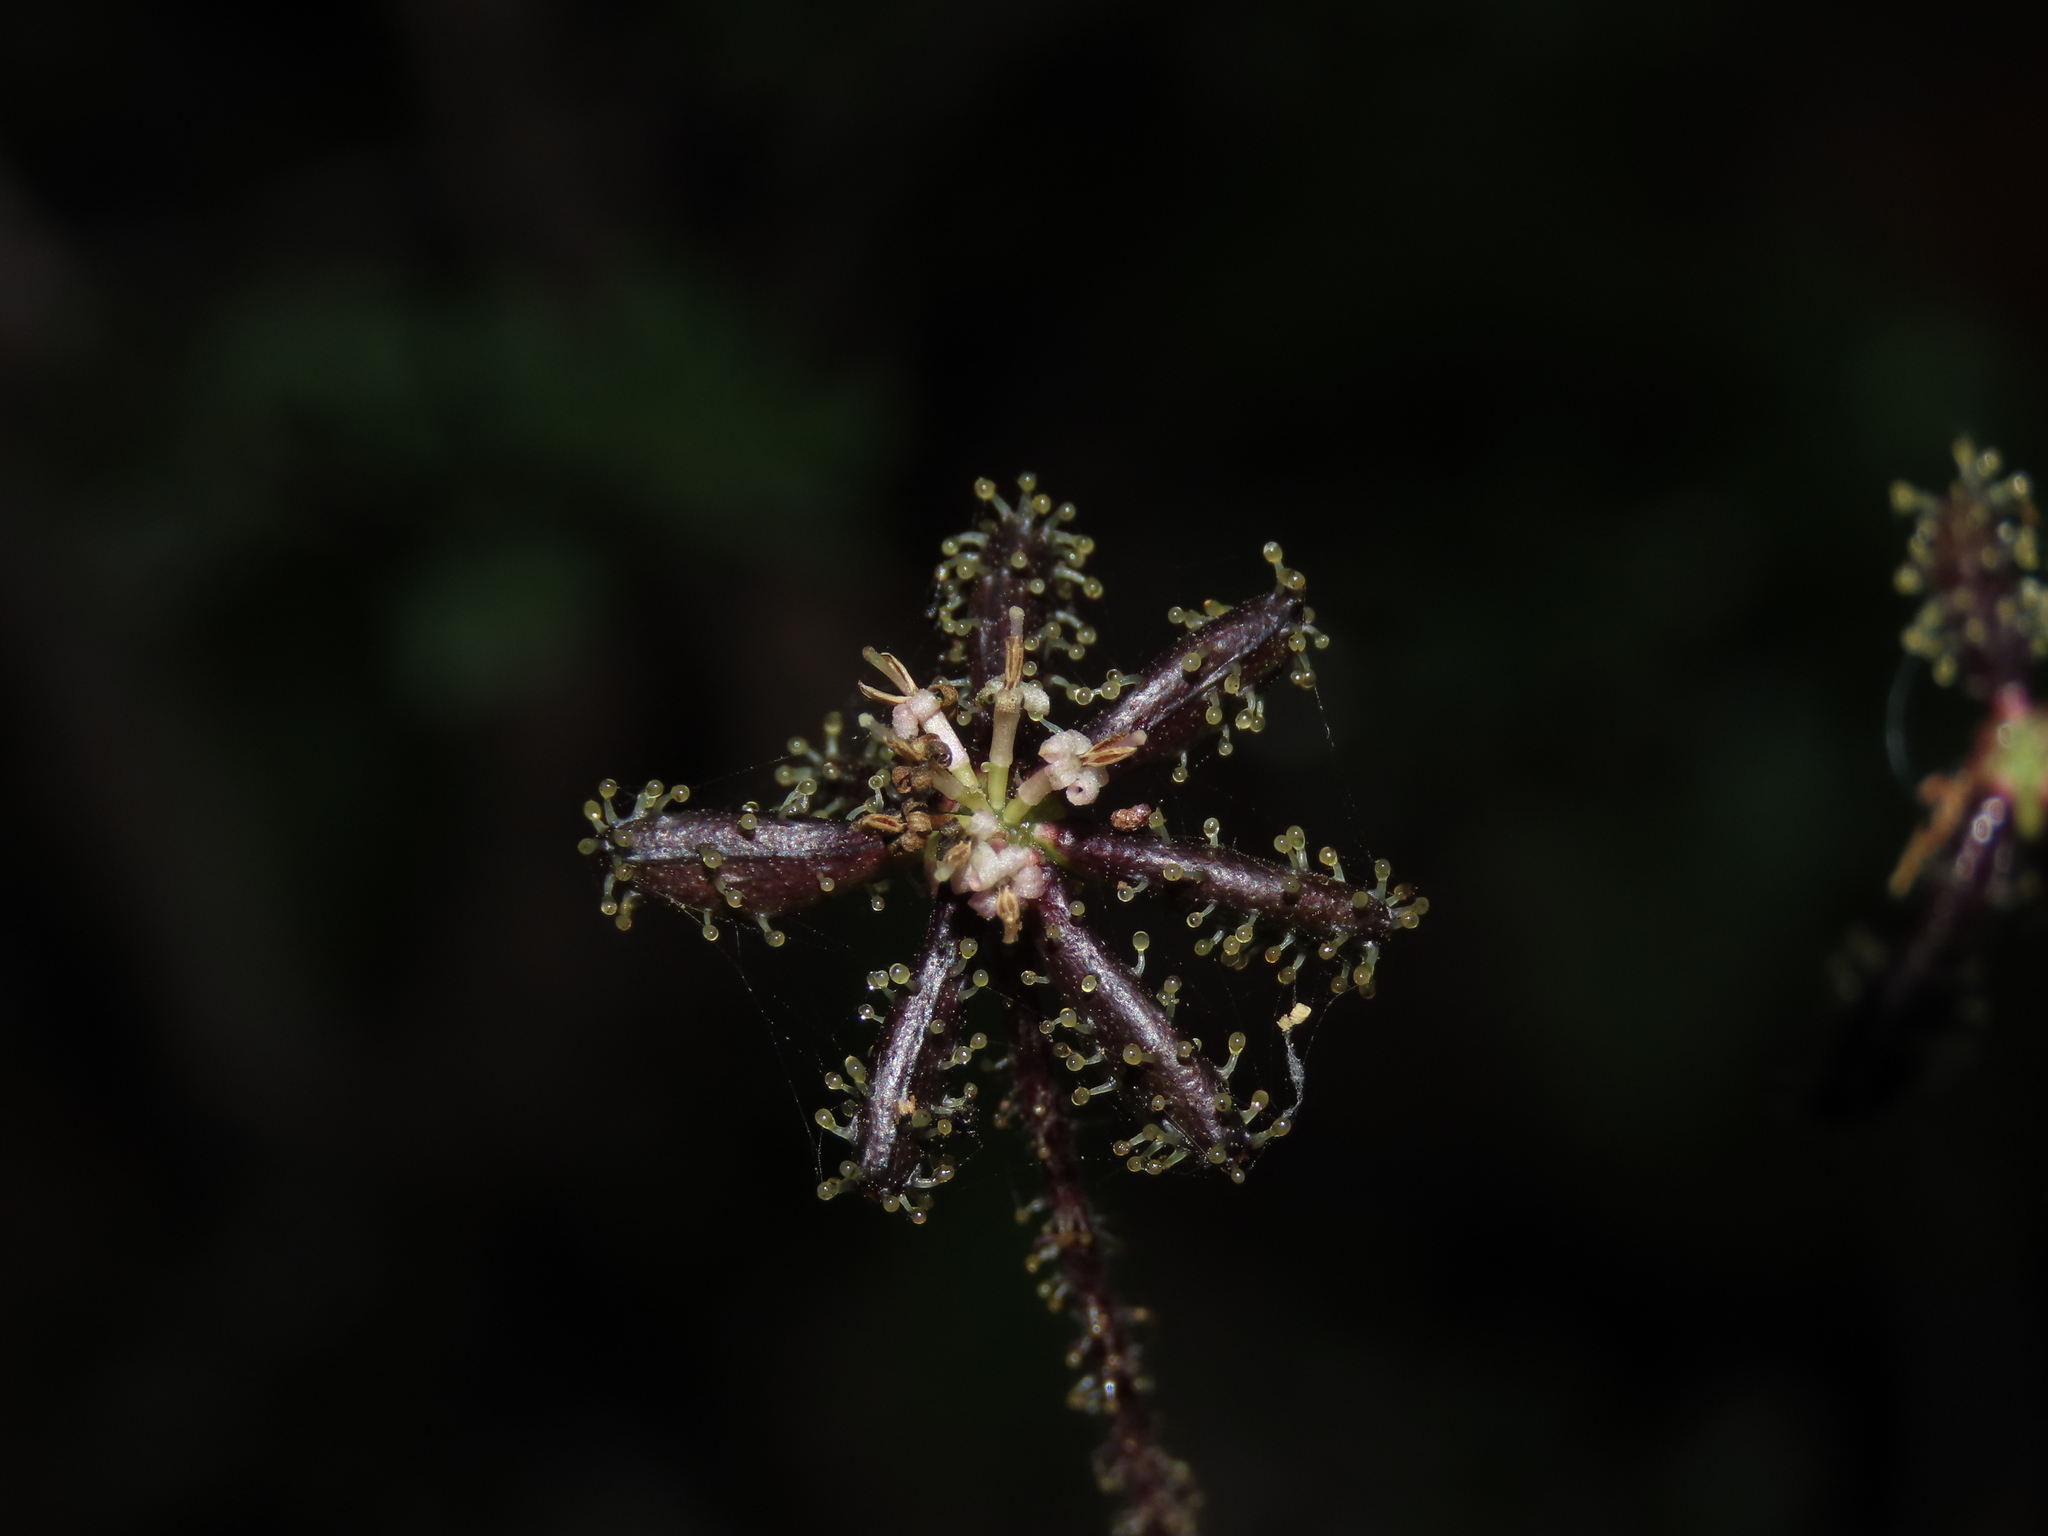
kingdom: Plantae
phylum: Tracheophyta
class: Magnoliopsida
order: Asterales
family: Asteraceae
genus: Adenocaulon
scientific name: Adenocaulon chilense
